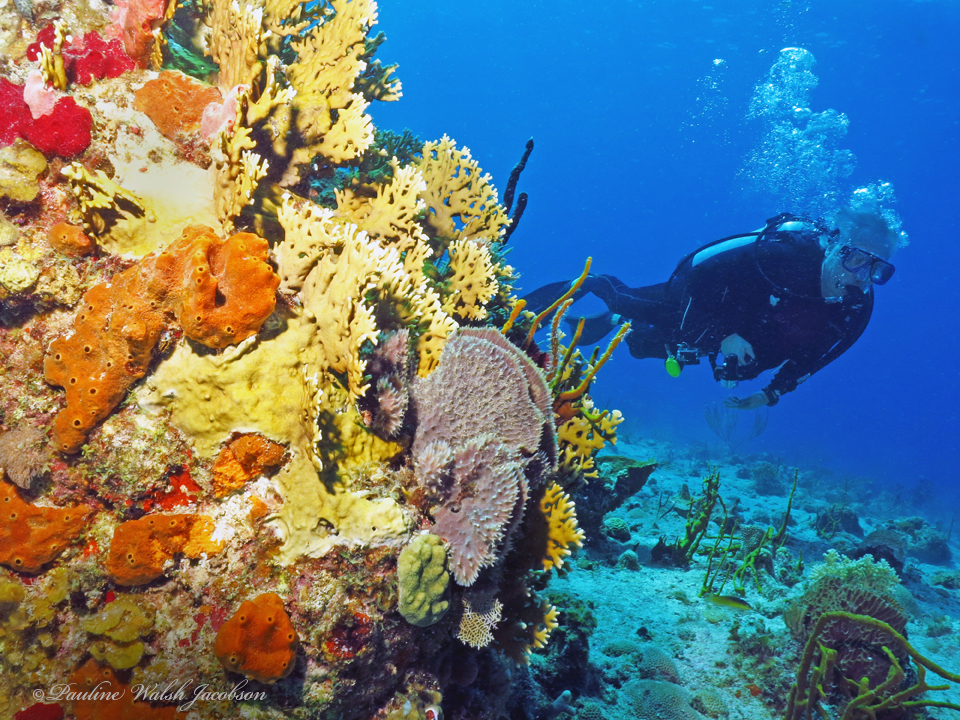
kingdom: Animalia
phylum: Cnidaria
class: Hydrozoa
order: Anthoathecata
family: Milleporidae
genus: Millepora
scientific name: Millepora alcicornis
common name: Branching fire coral
